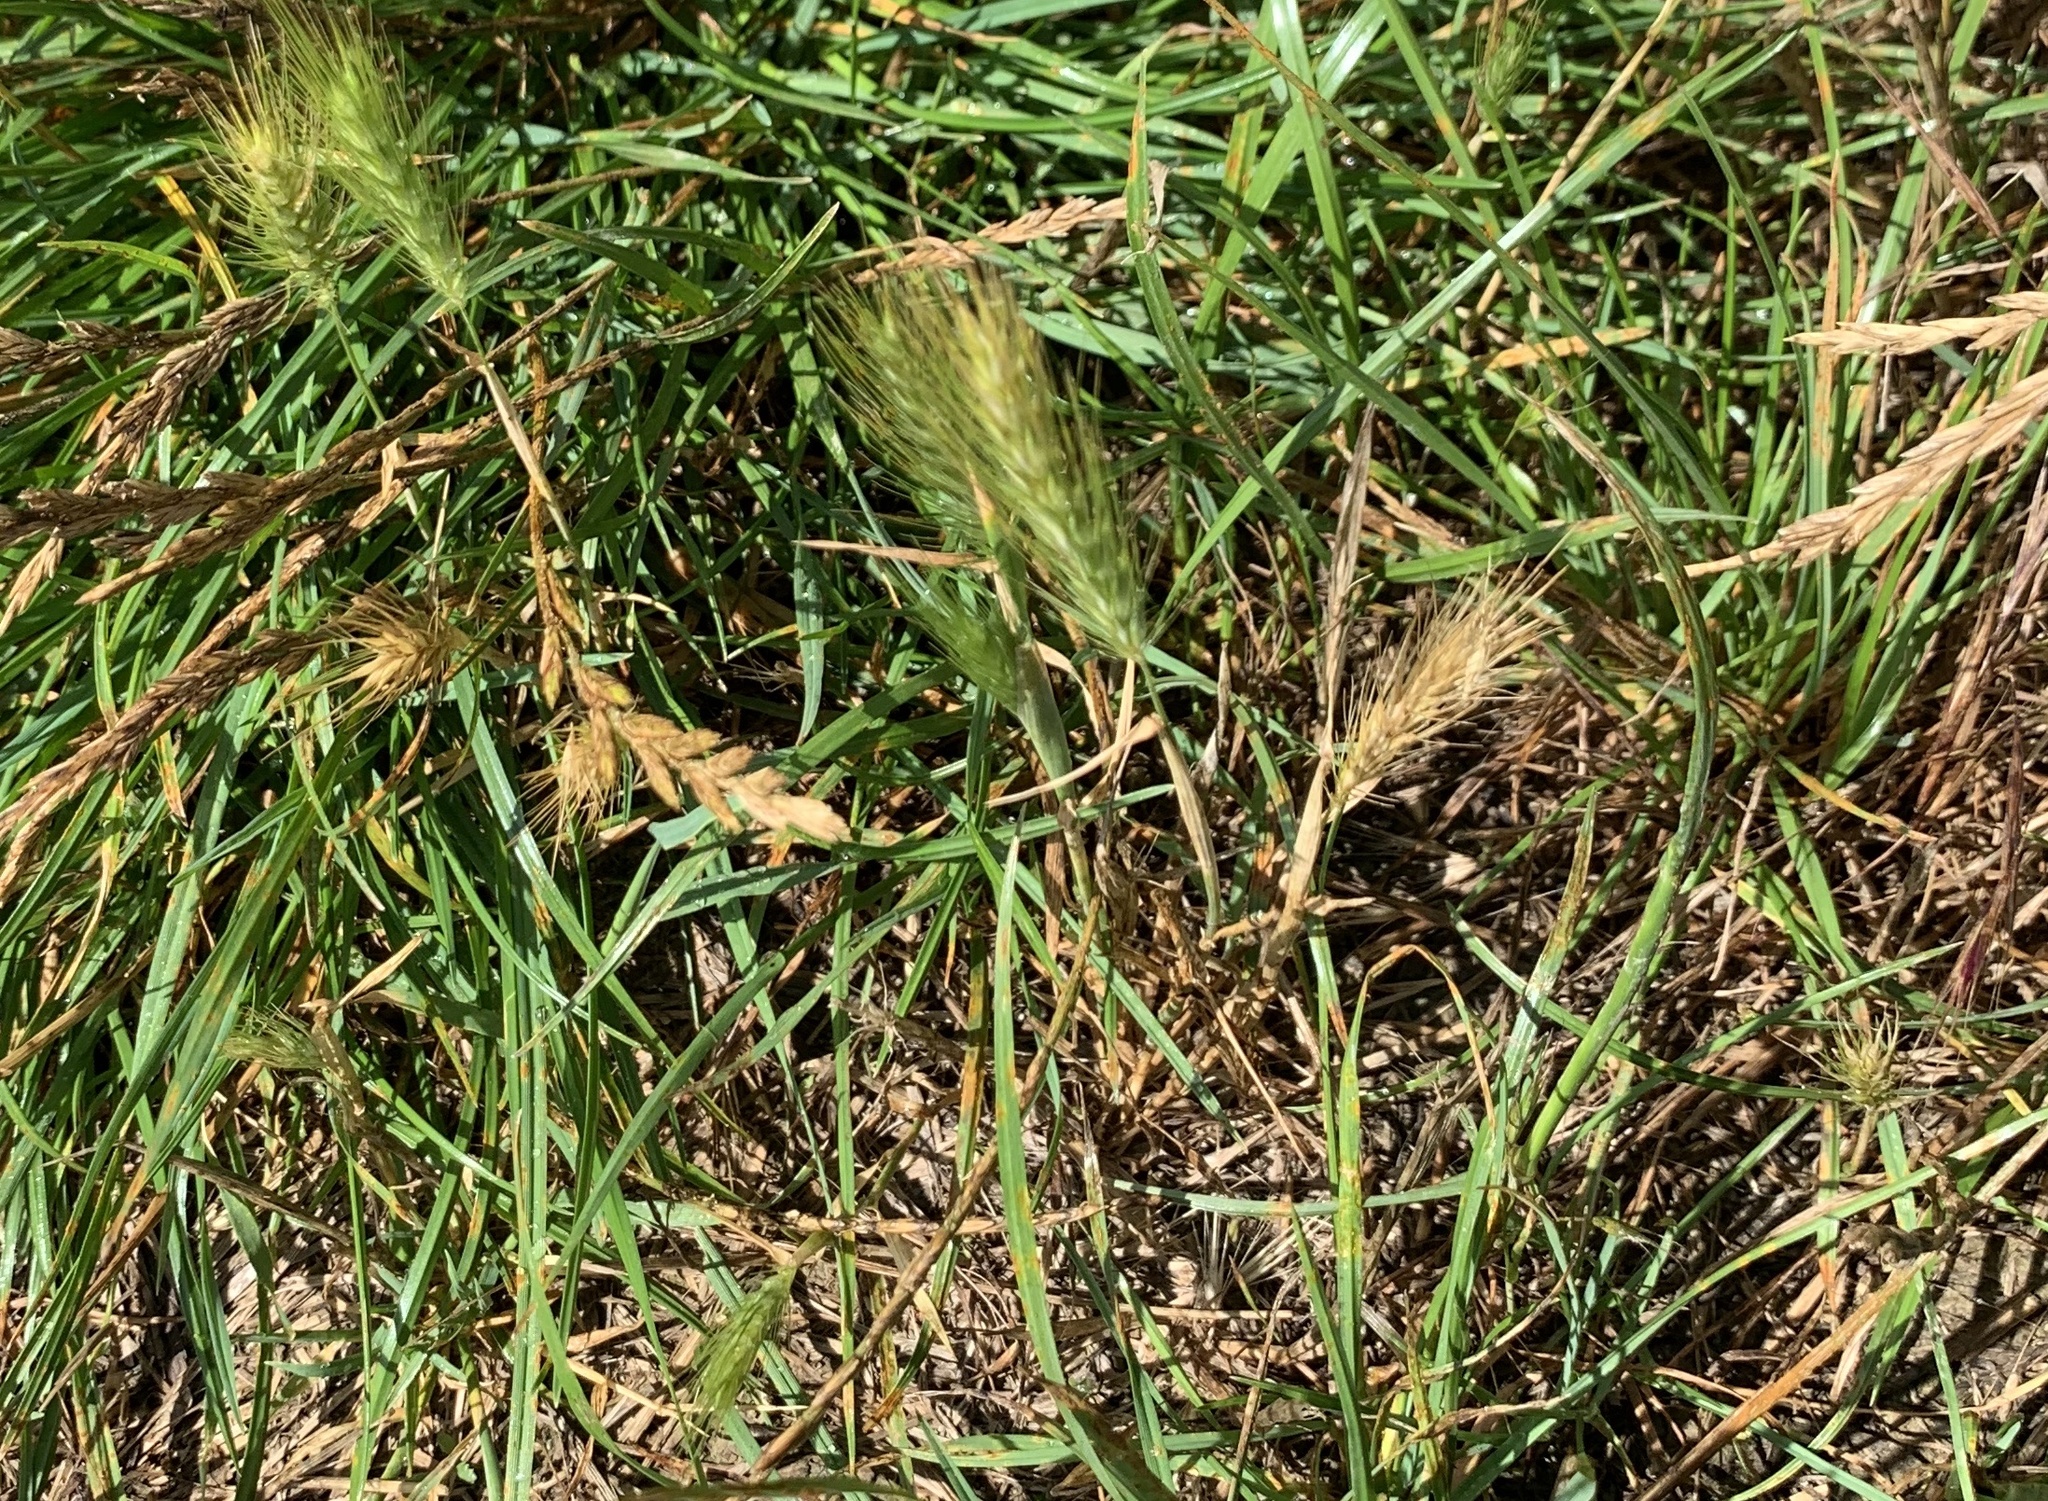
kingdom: Plantae
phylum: Tracheophyta
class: Liliopsida
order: Poales
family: Poaceae
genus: Hordeum
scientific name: Hordeum murinum
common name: Wall barley
